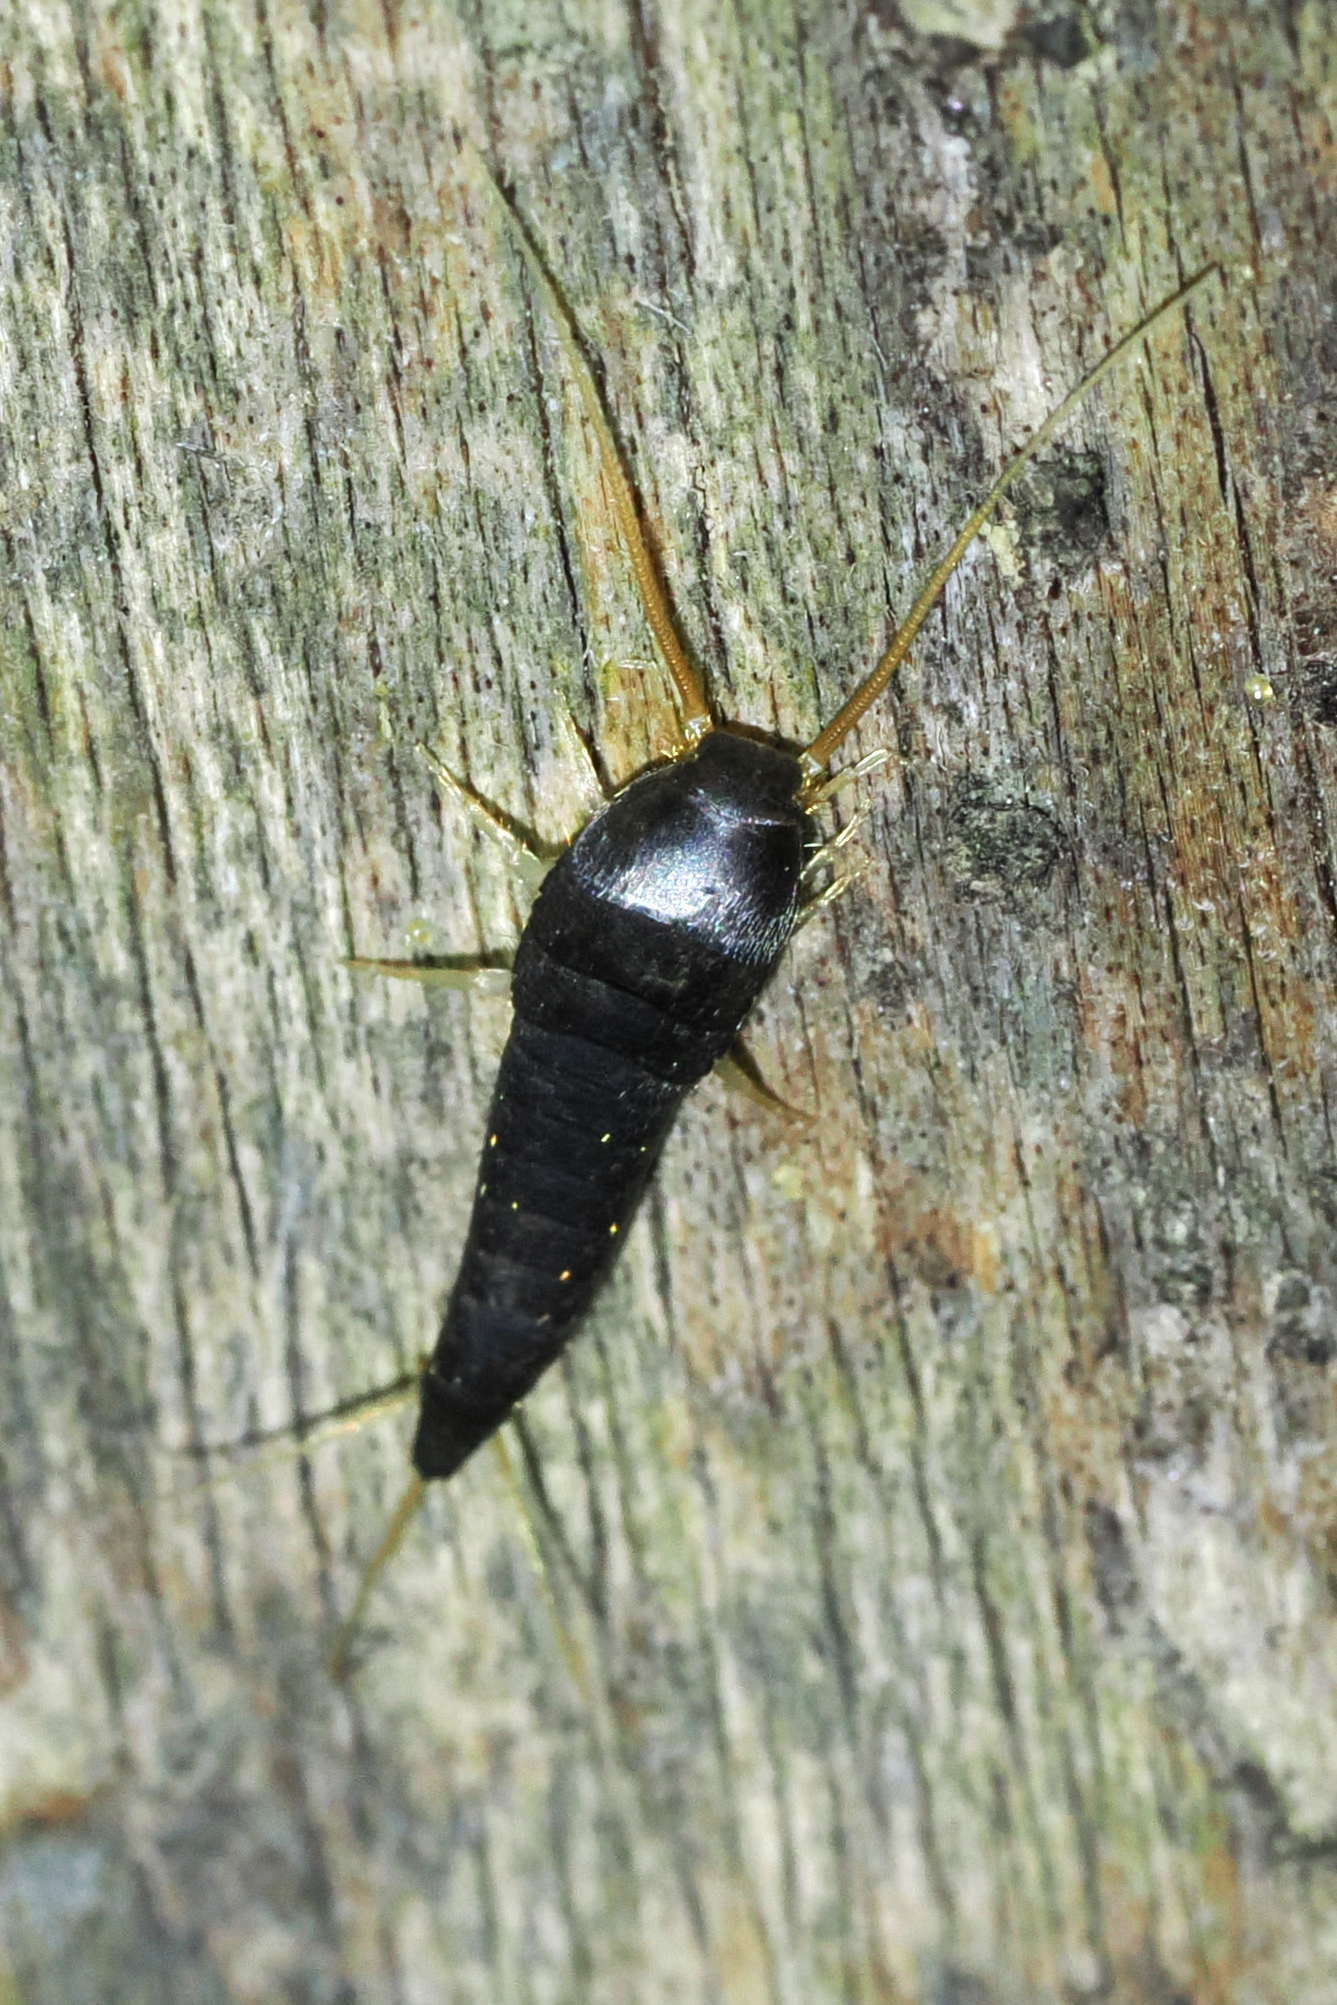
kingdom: Animalia
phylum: Arthropoda
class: Insecta
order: Zygentoma
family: Lepismatidae
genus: Lepisma
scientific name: Lepisma saccharinum
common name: Silverfish
